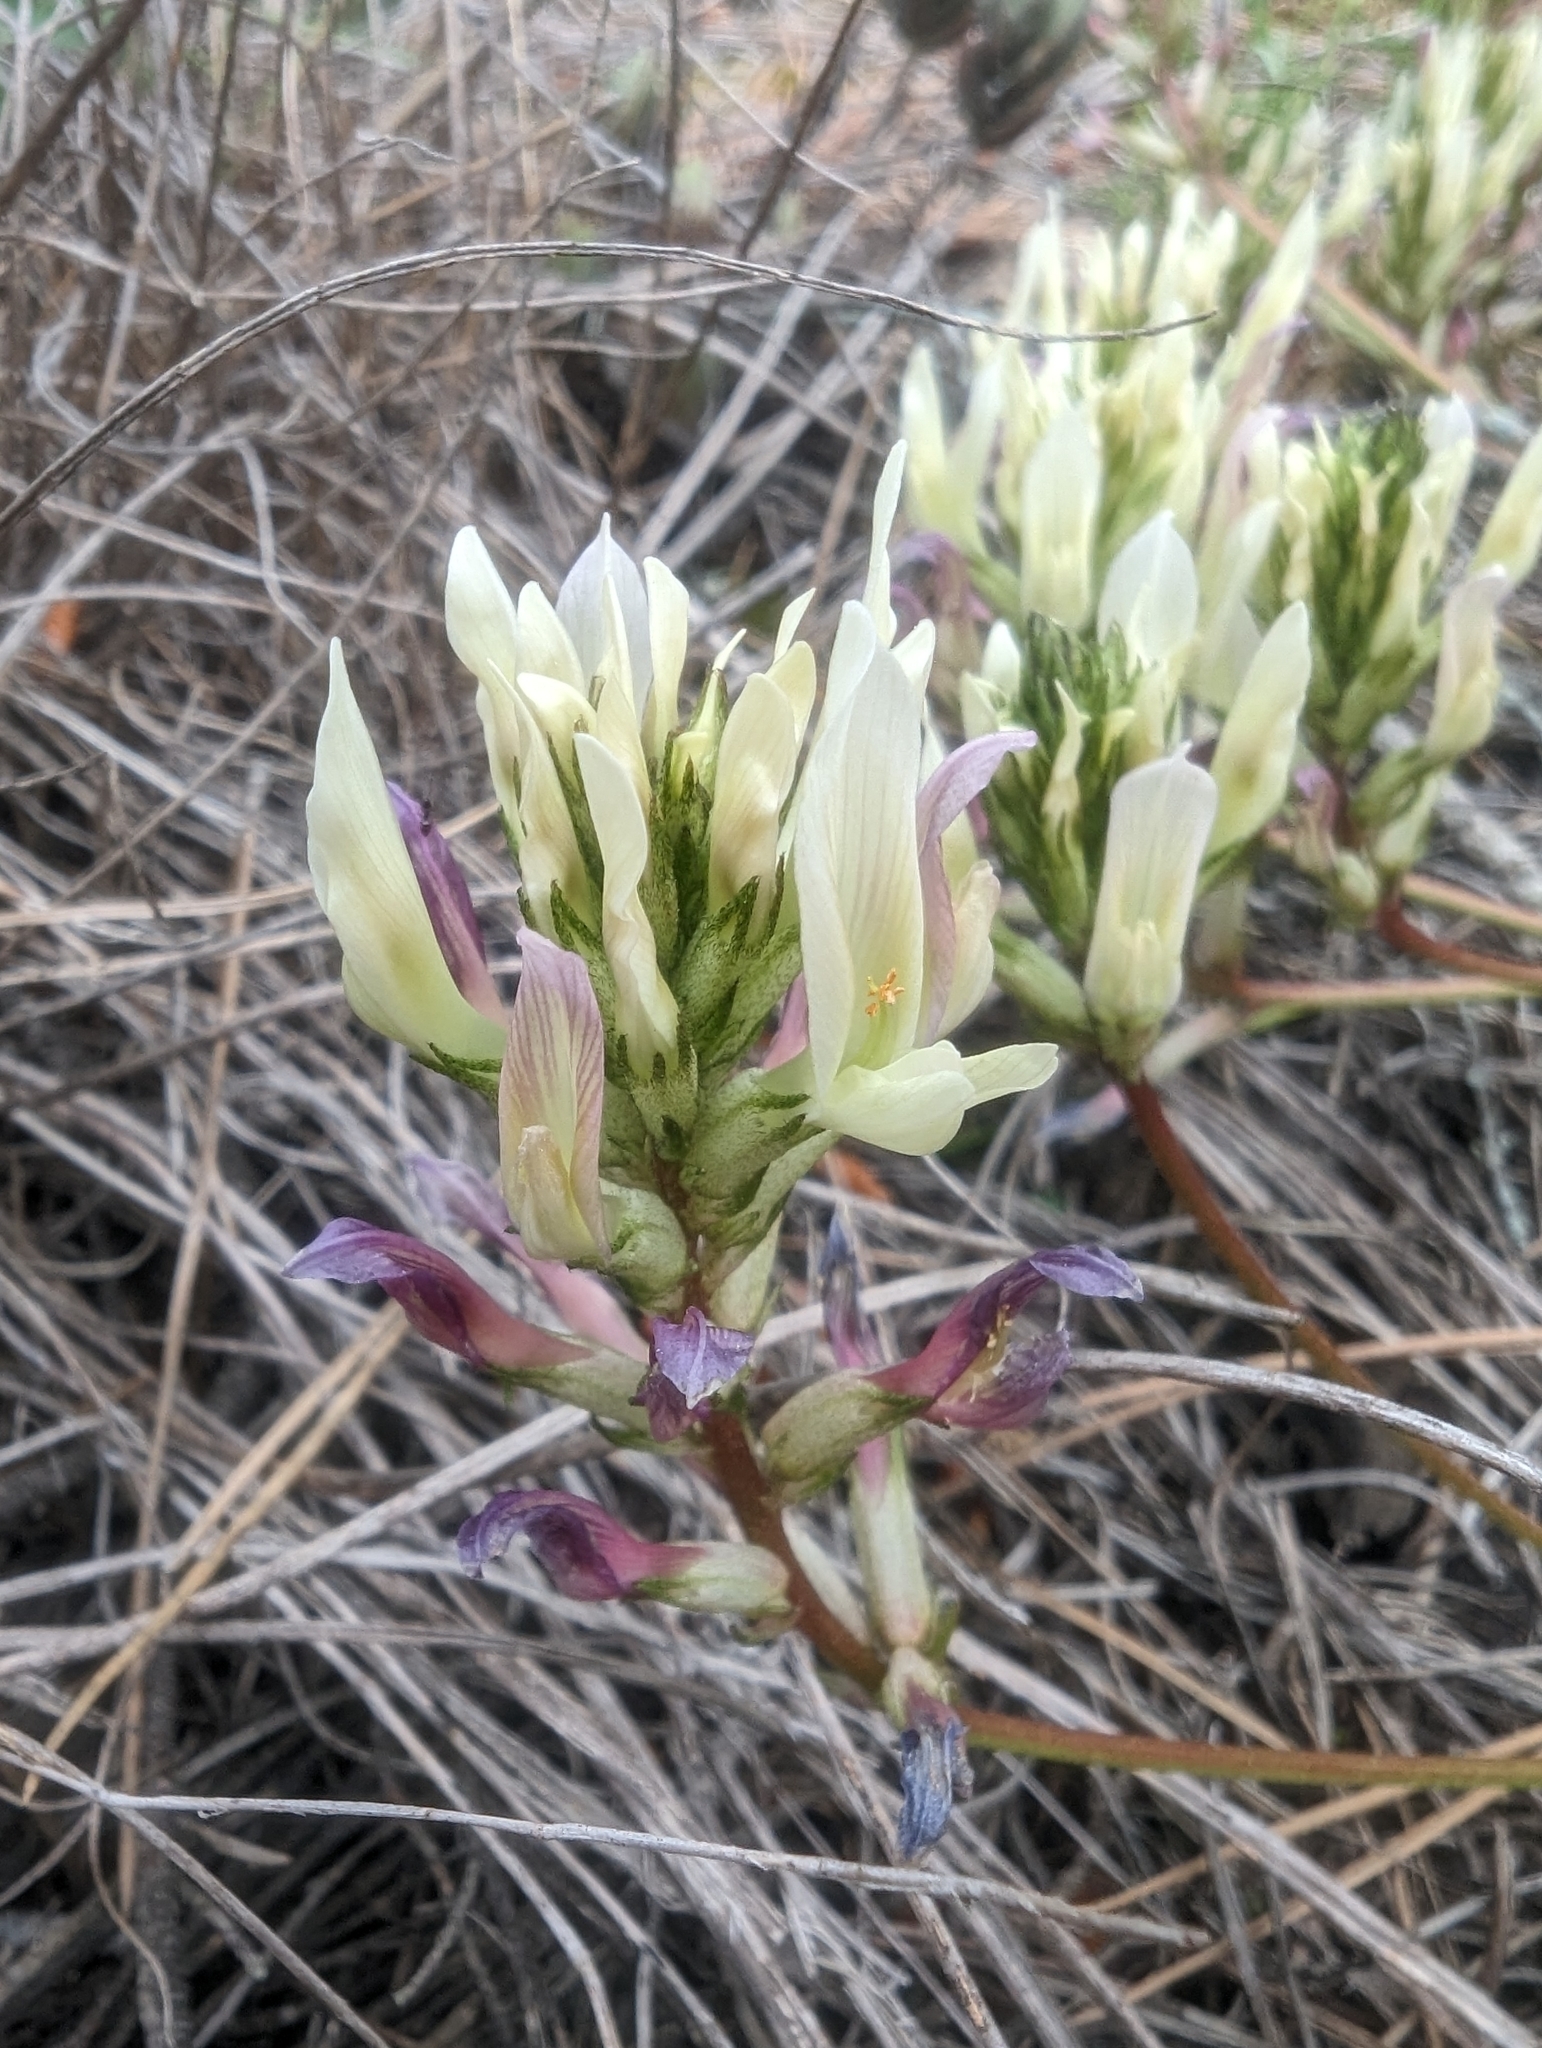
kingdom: Plantae
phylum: Tracheophyta
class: Magnoliopsida
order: Fabales
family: Fabaceae
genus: Astragalus
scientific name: Astragalus monspessulanus
